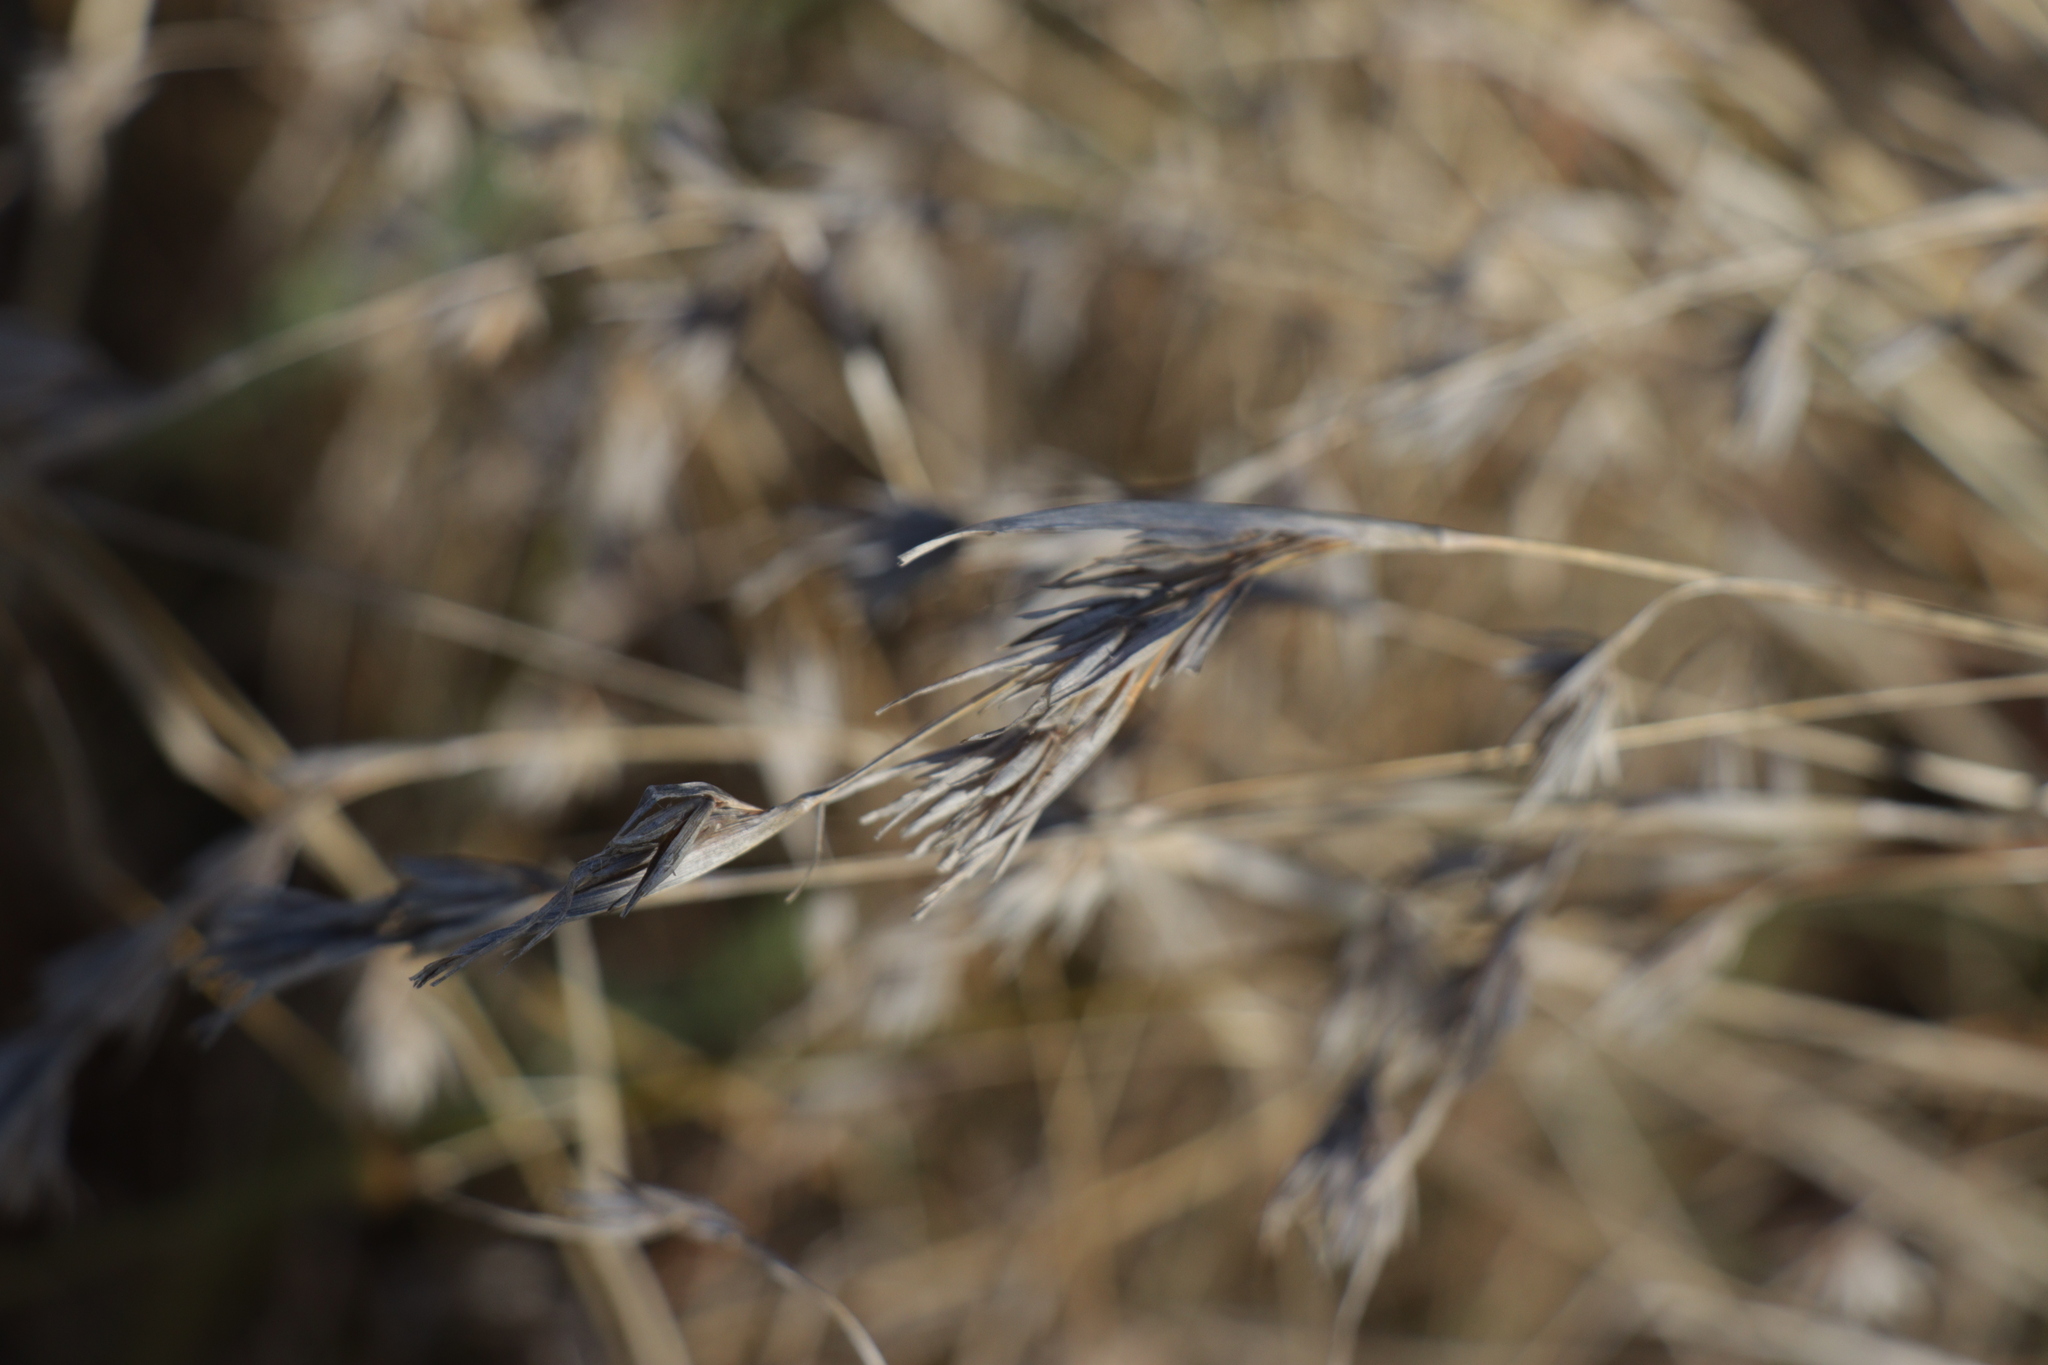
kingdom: Plantae
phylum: Tracheophyta
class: Liliopsida
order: Poales
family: Poaceae
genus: Themeda
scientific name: Themeda triandra
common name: Kangaroo grass
